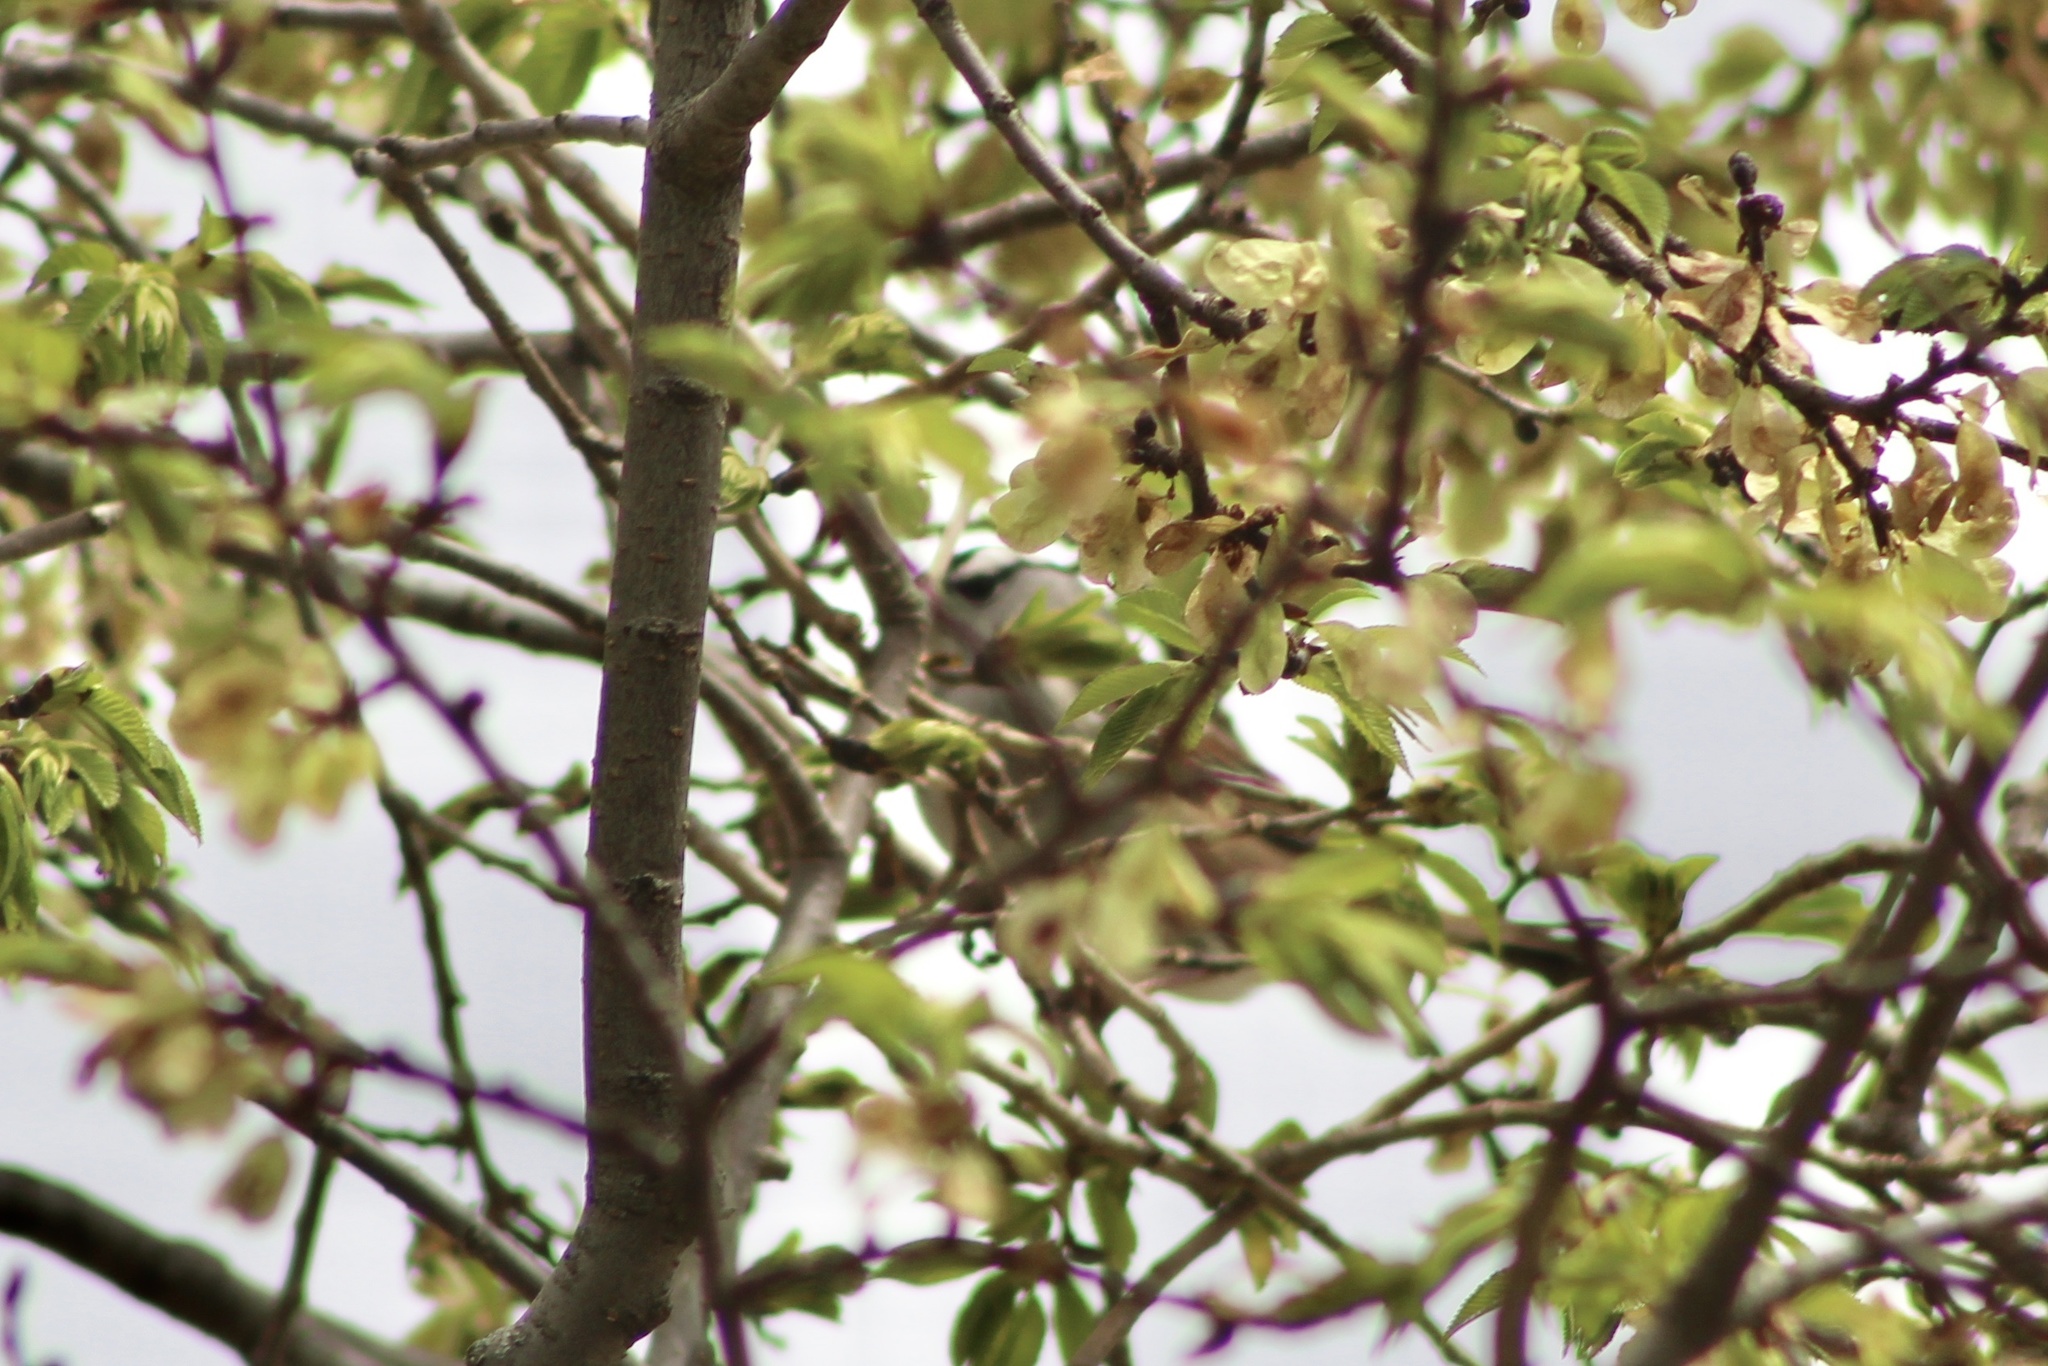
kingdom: Animalia
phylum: Chordata
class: Aves
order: Passeriformes
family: Passerellidae
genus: Zonotrichia
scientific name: Zonotrichia leucophrys
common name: White-crowned sparrow
